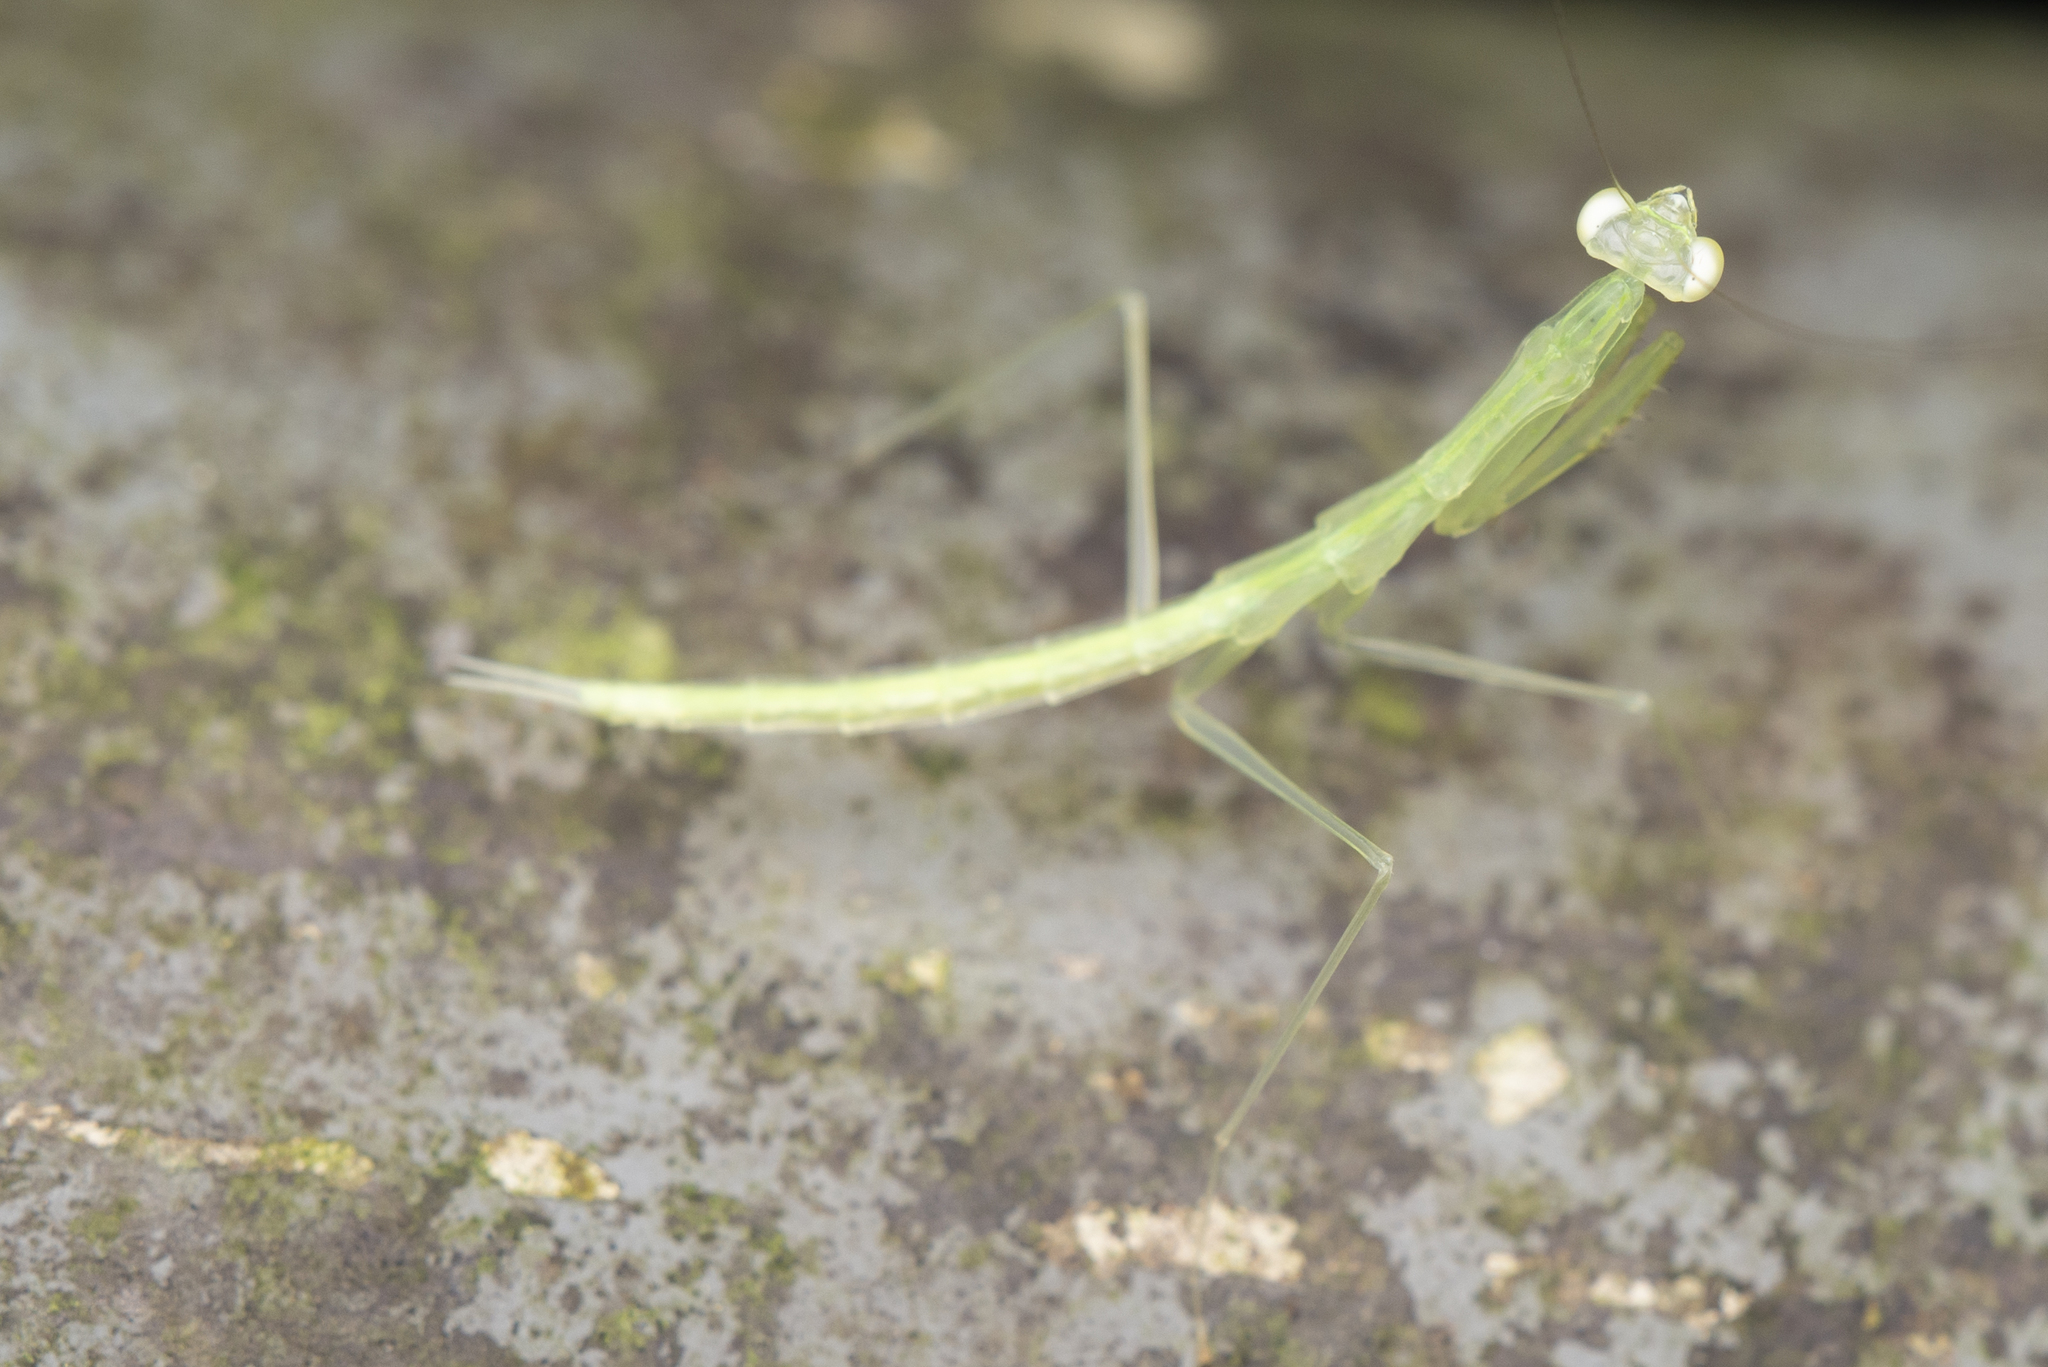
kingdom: Animalia
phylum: Arthropoda
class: Insecta
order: Mantodea
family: Nanomantidae
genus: Sinomantis
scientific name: Sinomantis denticulata
